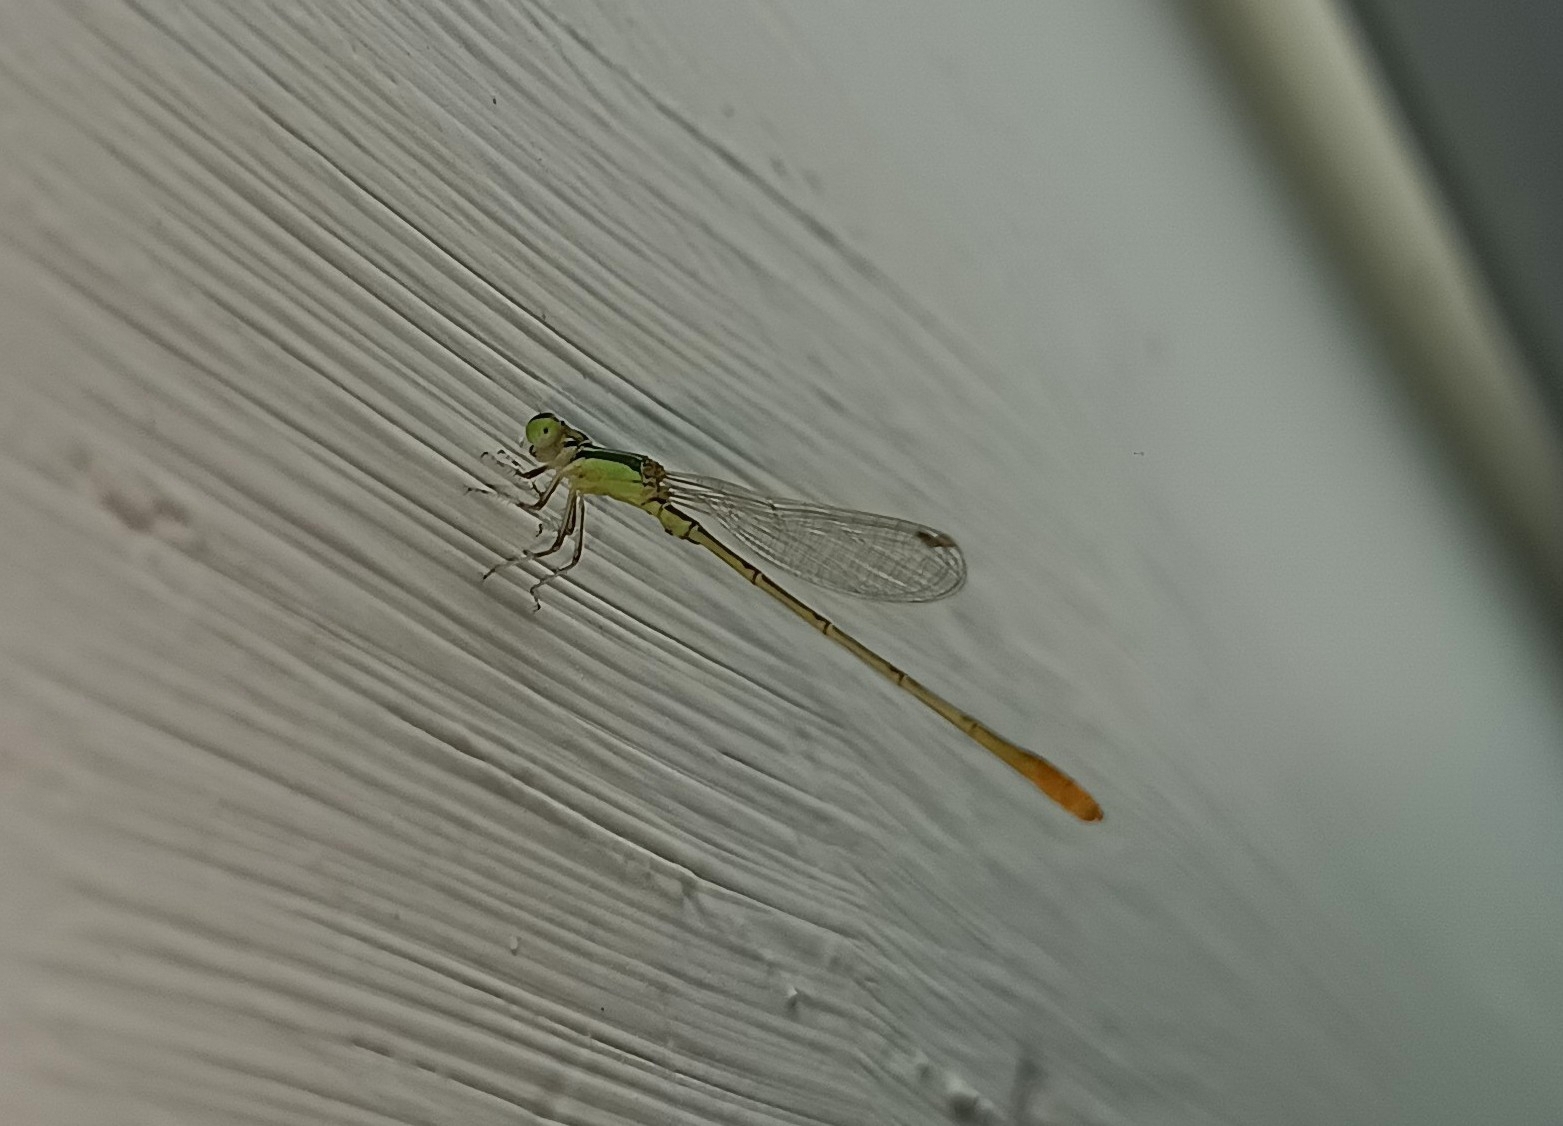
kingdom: Animalia
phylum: Arthropoda
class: Insecta
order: Odonata
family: Coenagrionidae
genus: Agriocnemis
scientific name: Agriocnemis pygmaea
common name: Pygmy wisp
